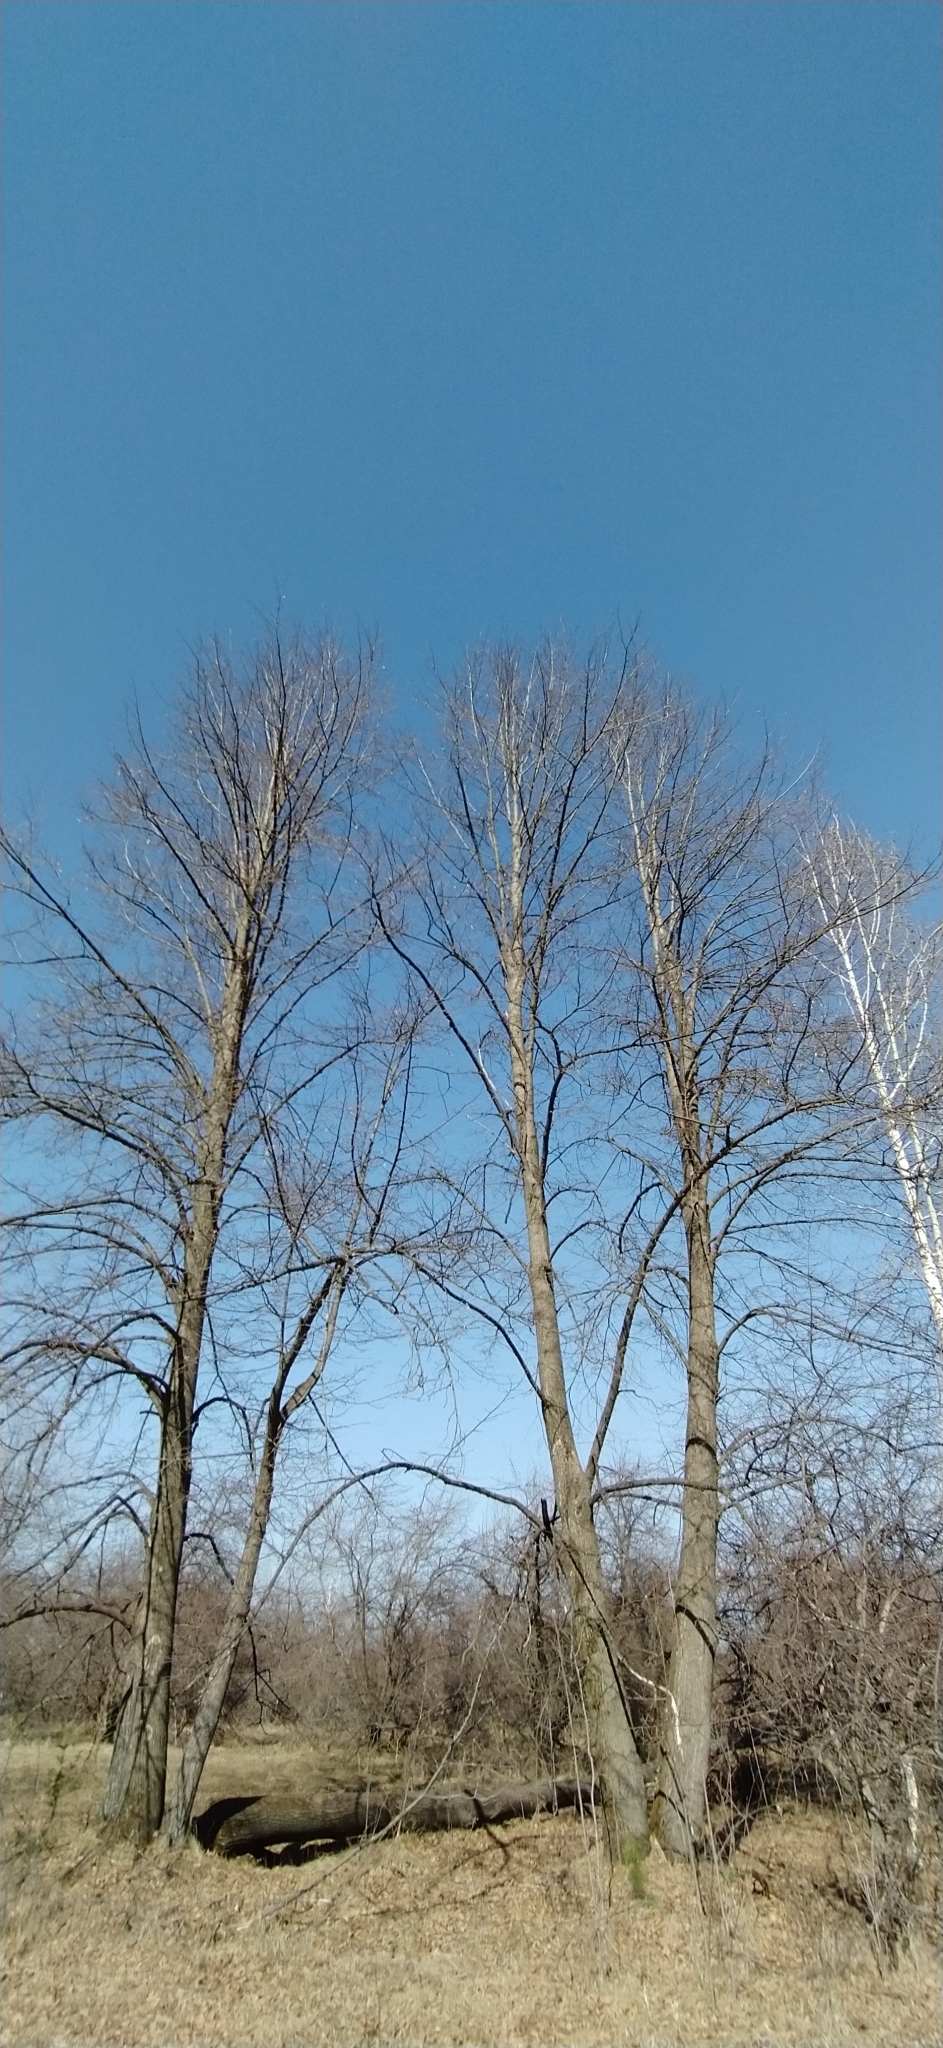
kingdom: Plantae
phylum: Tracheophyta
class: Magnoliopsida
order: Malvales
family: Malvaceae
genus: Tilia
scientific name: Tilia cordata
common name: Small-leaved lime
